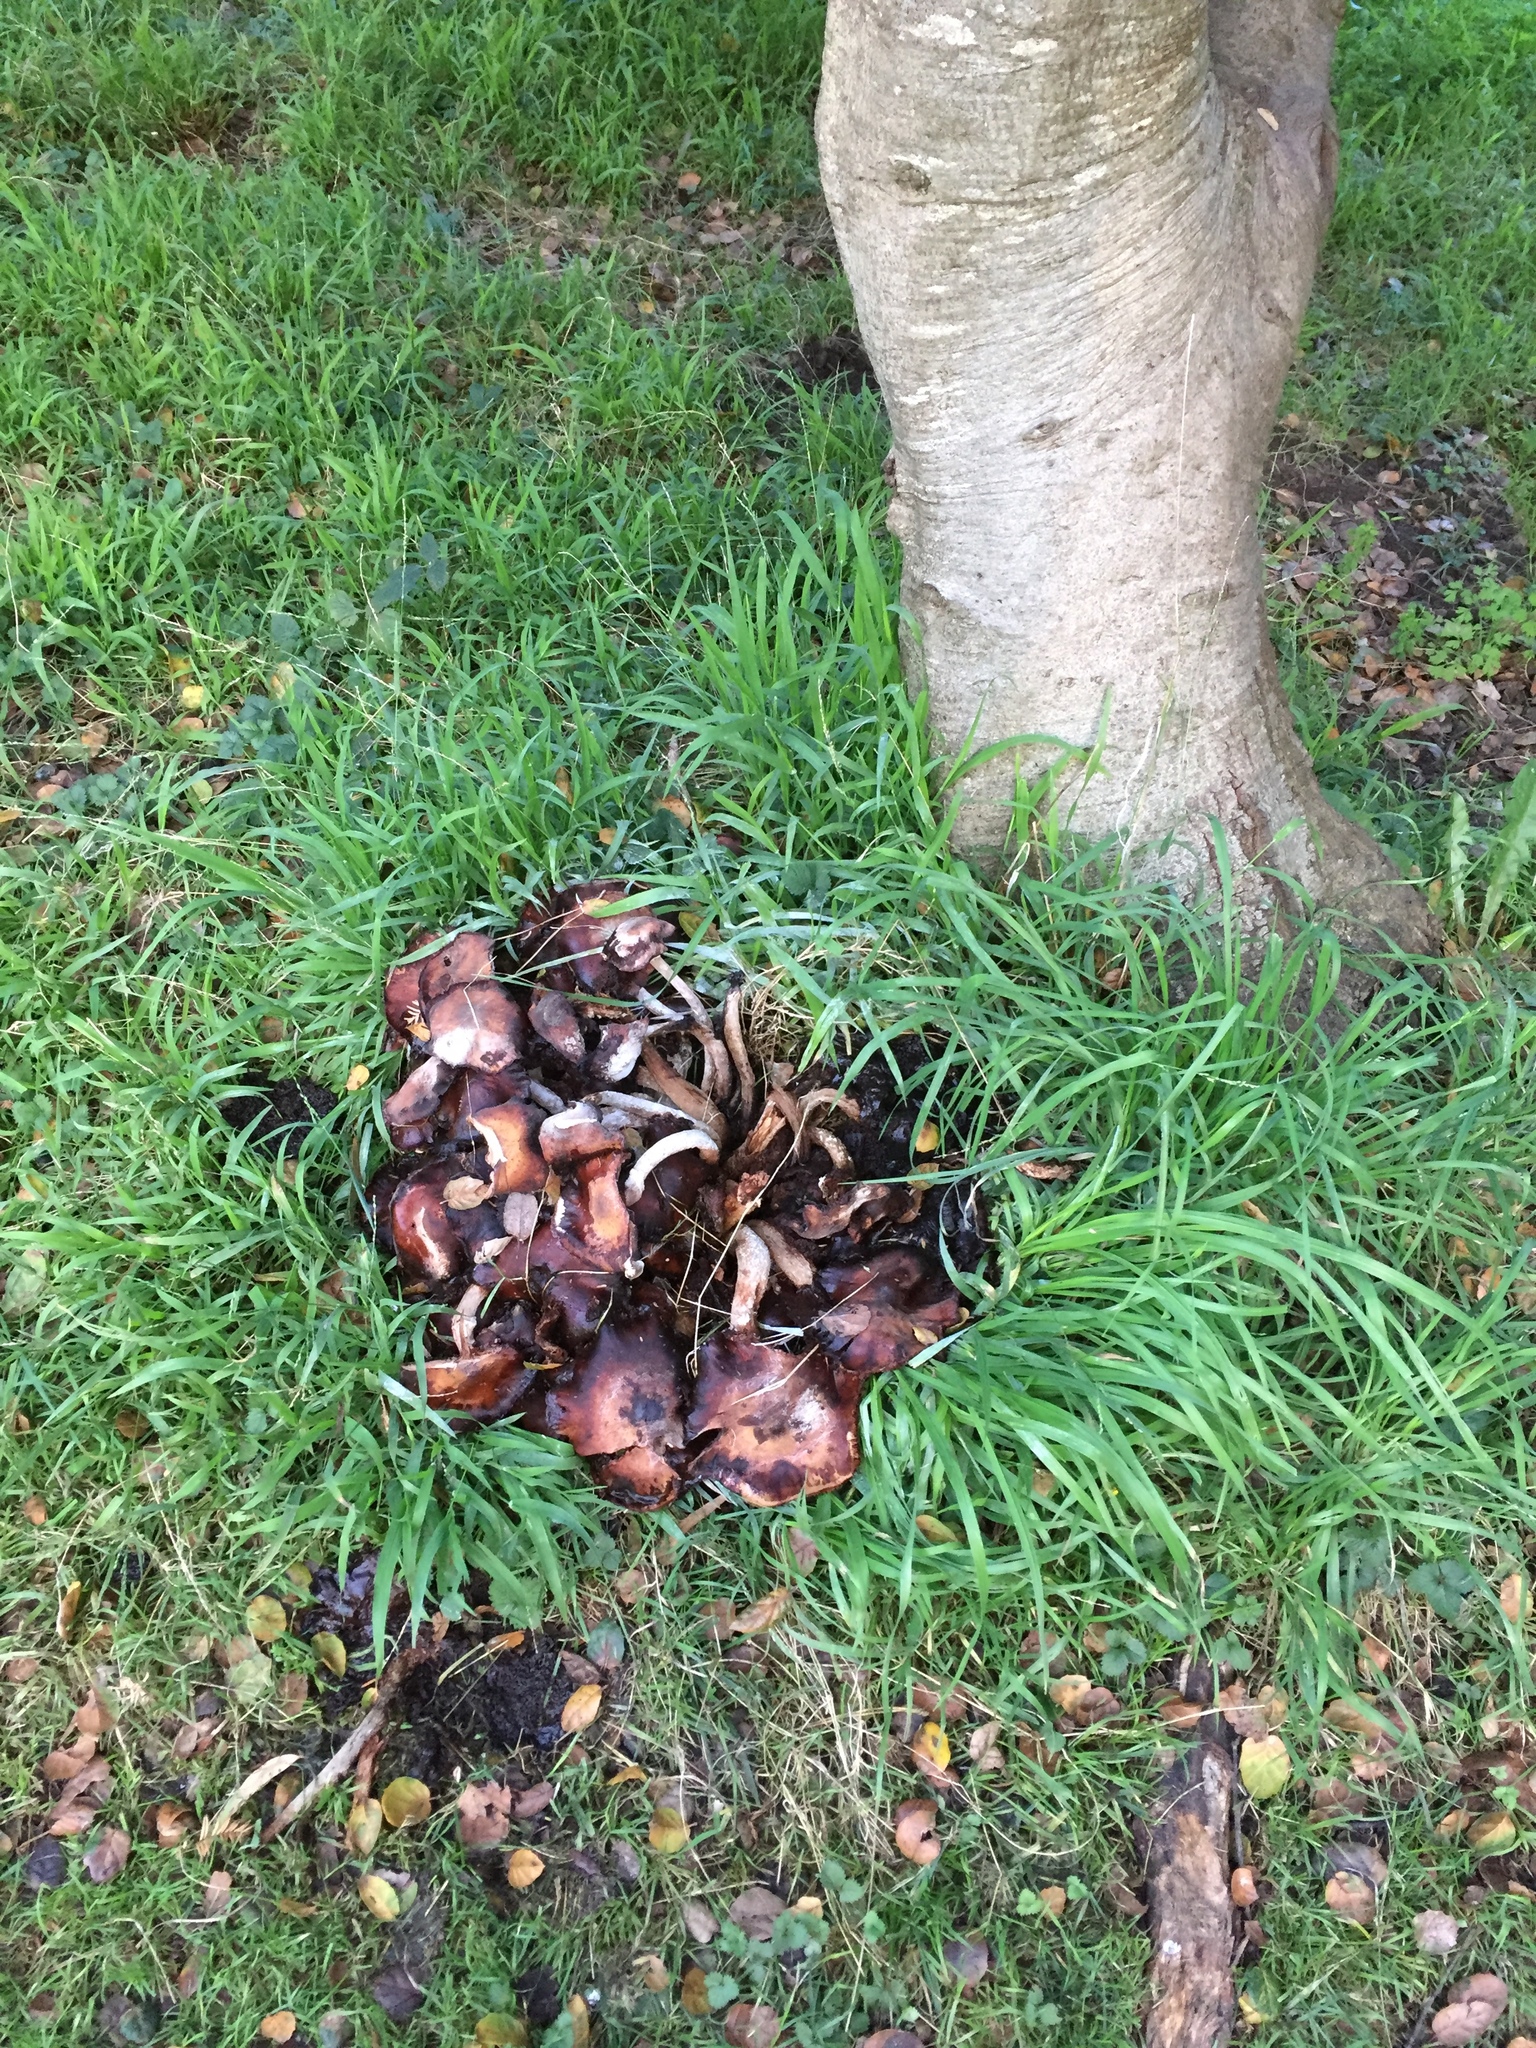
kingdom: Fungi
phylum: Basidiomycota
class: Agaricomycetes
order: Agaricales
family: Physalacriaceae
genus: Armillaria
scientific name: Armillaria mellea
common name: Honey fungus
